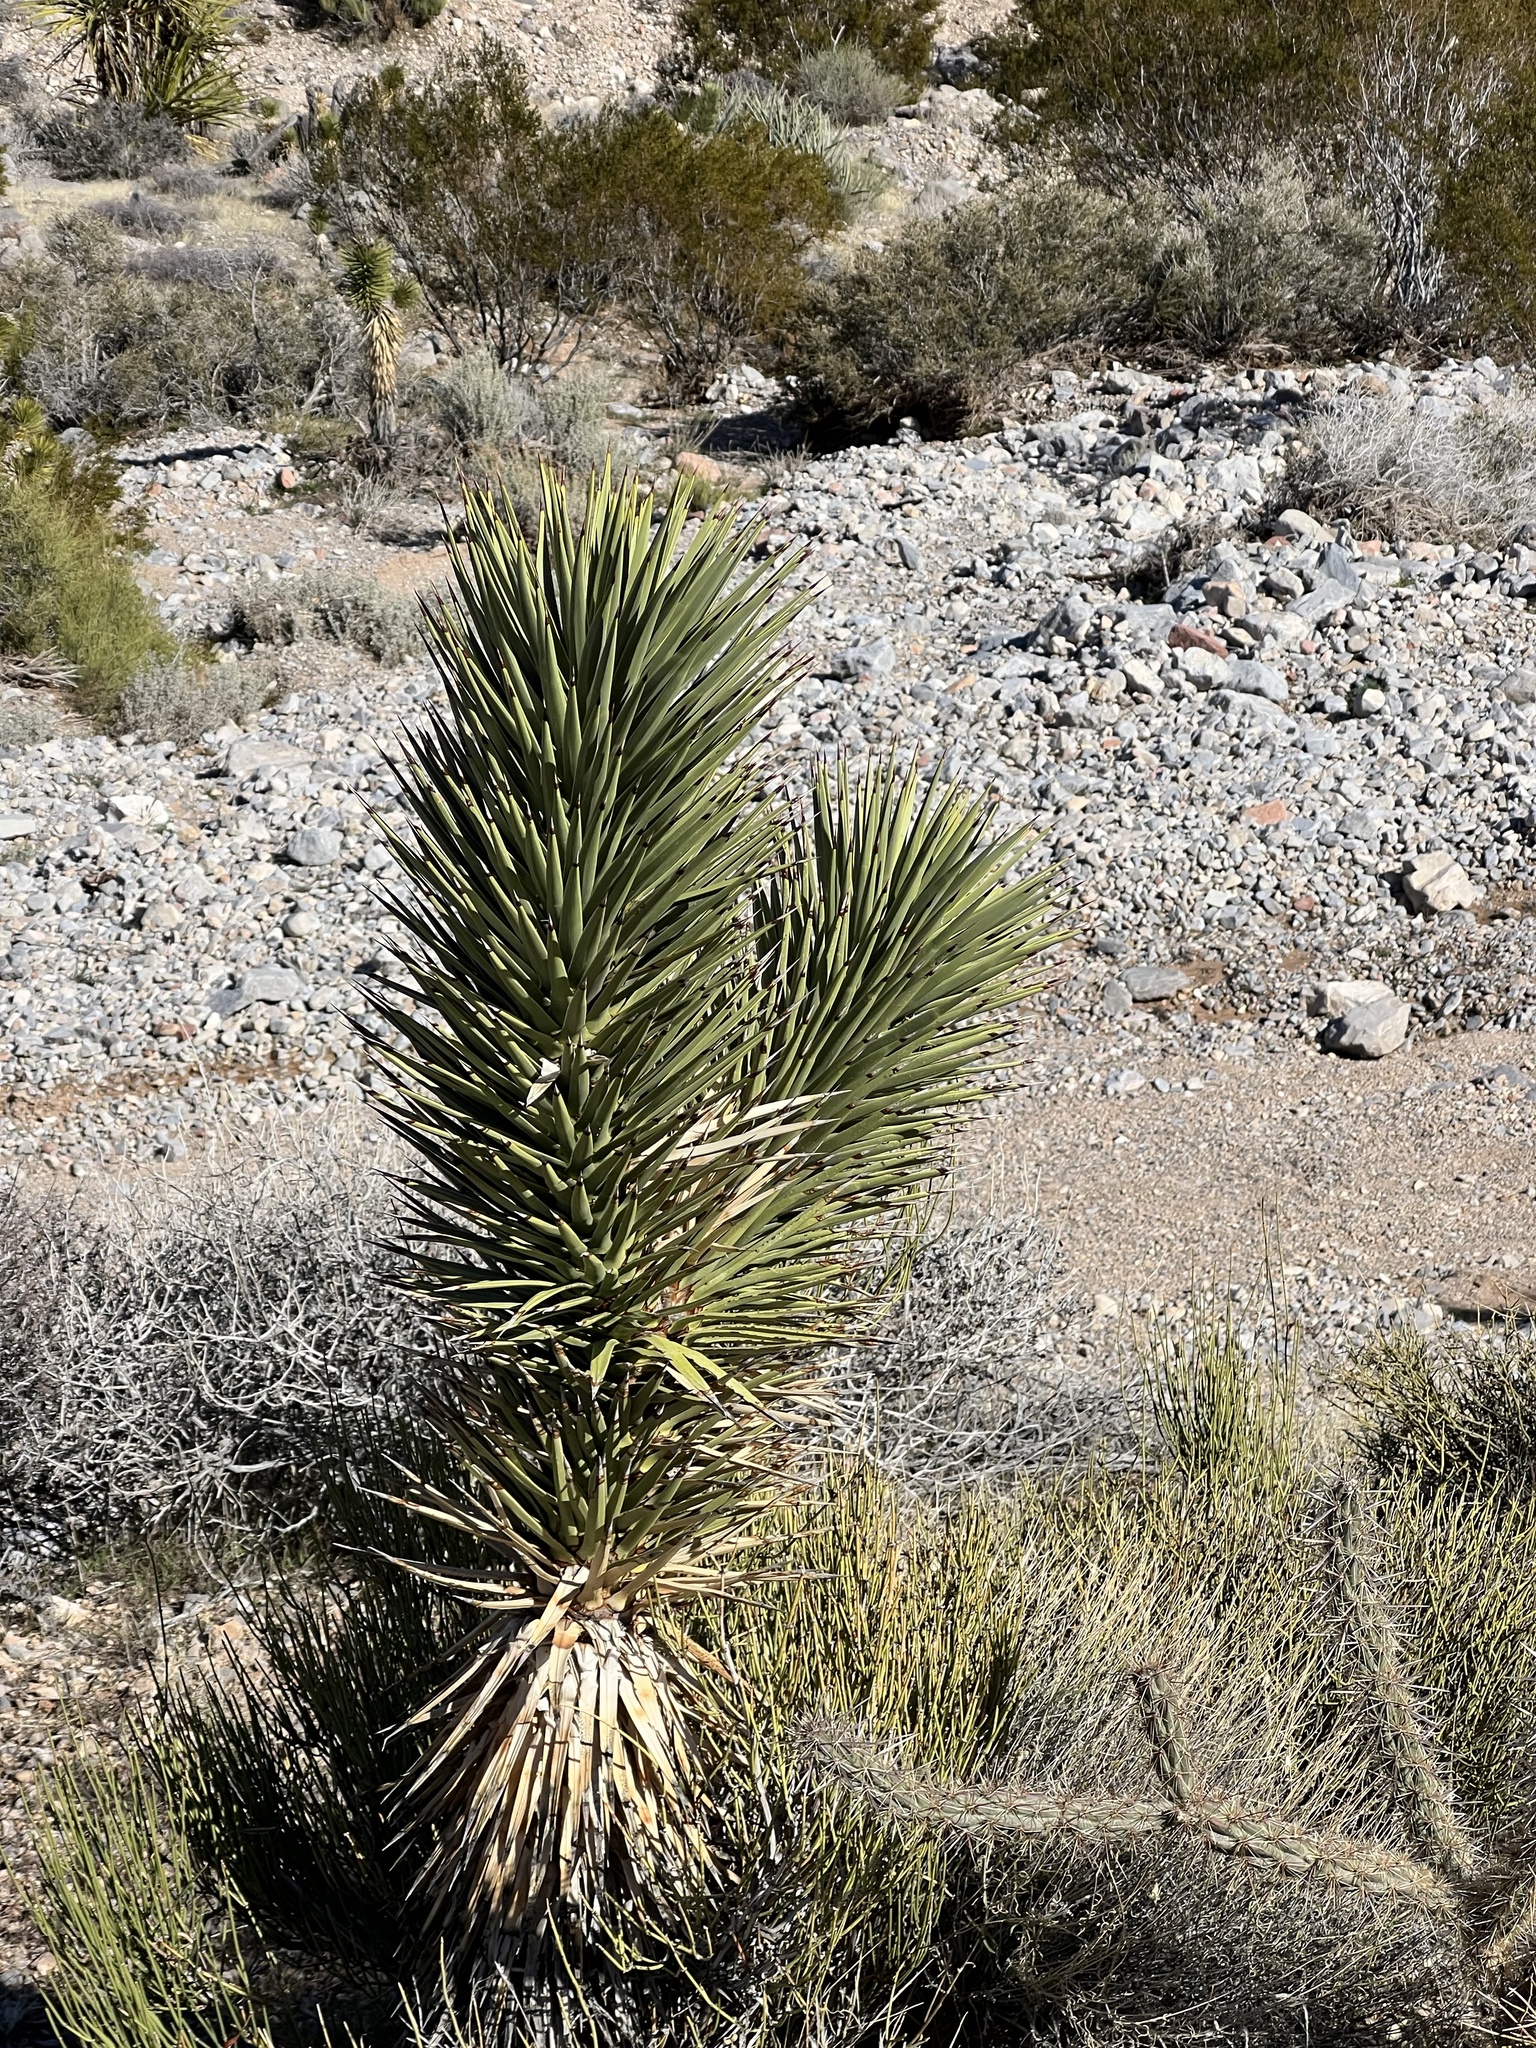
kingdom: Plantae
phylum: Tracheophyta
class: Liliopsida
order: Asparagales
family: Asparagaceae
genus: Yucca
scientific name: Yucca brevifolia
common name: Joshua tree
